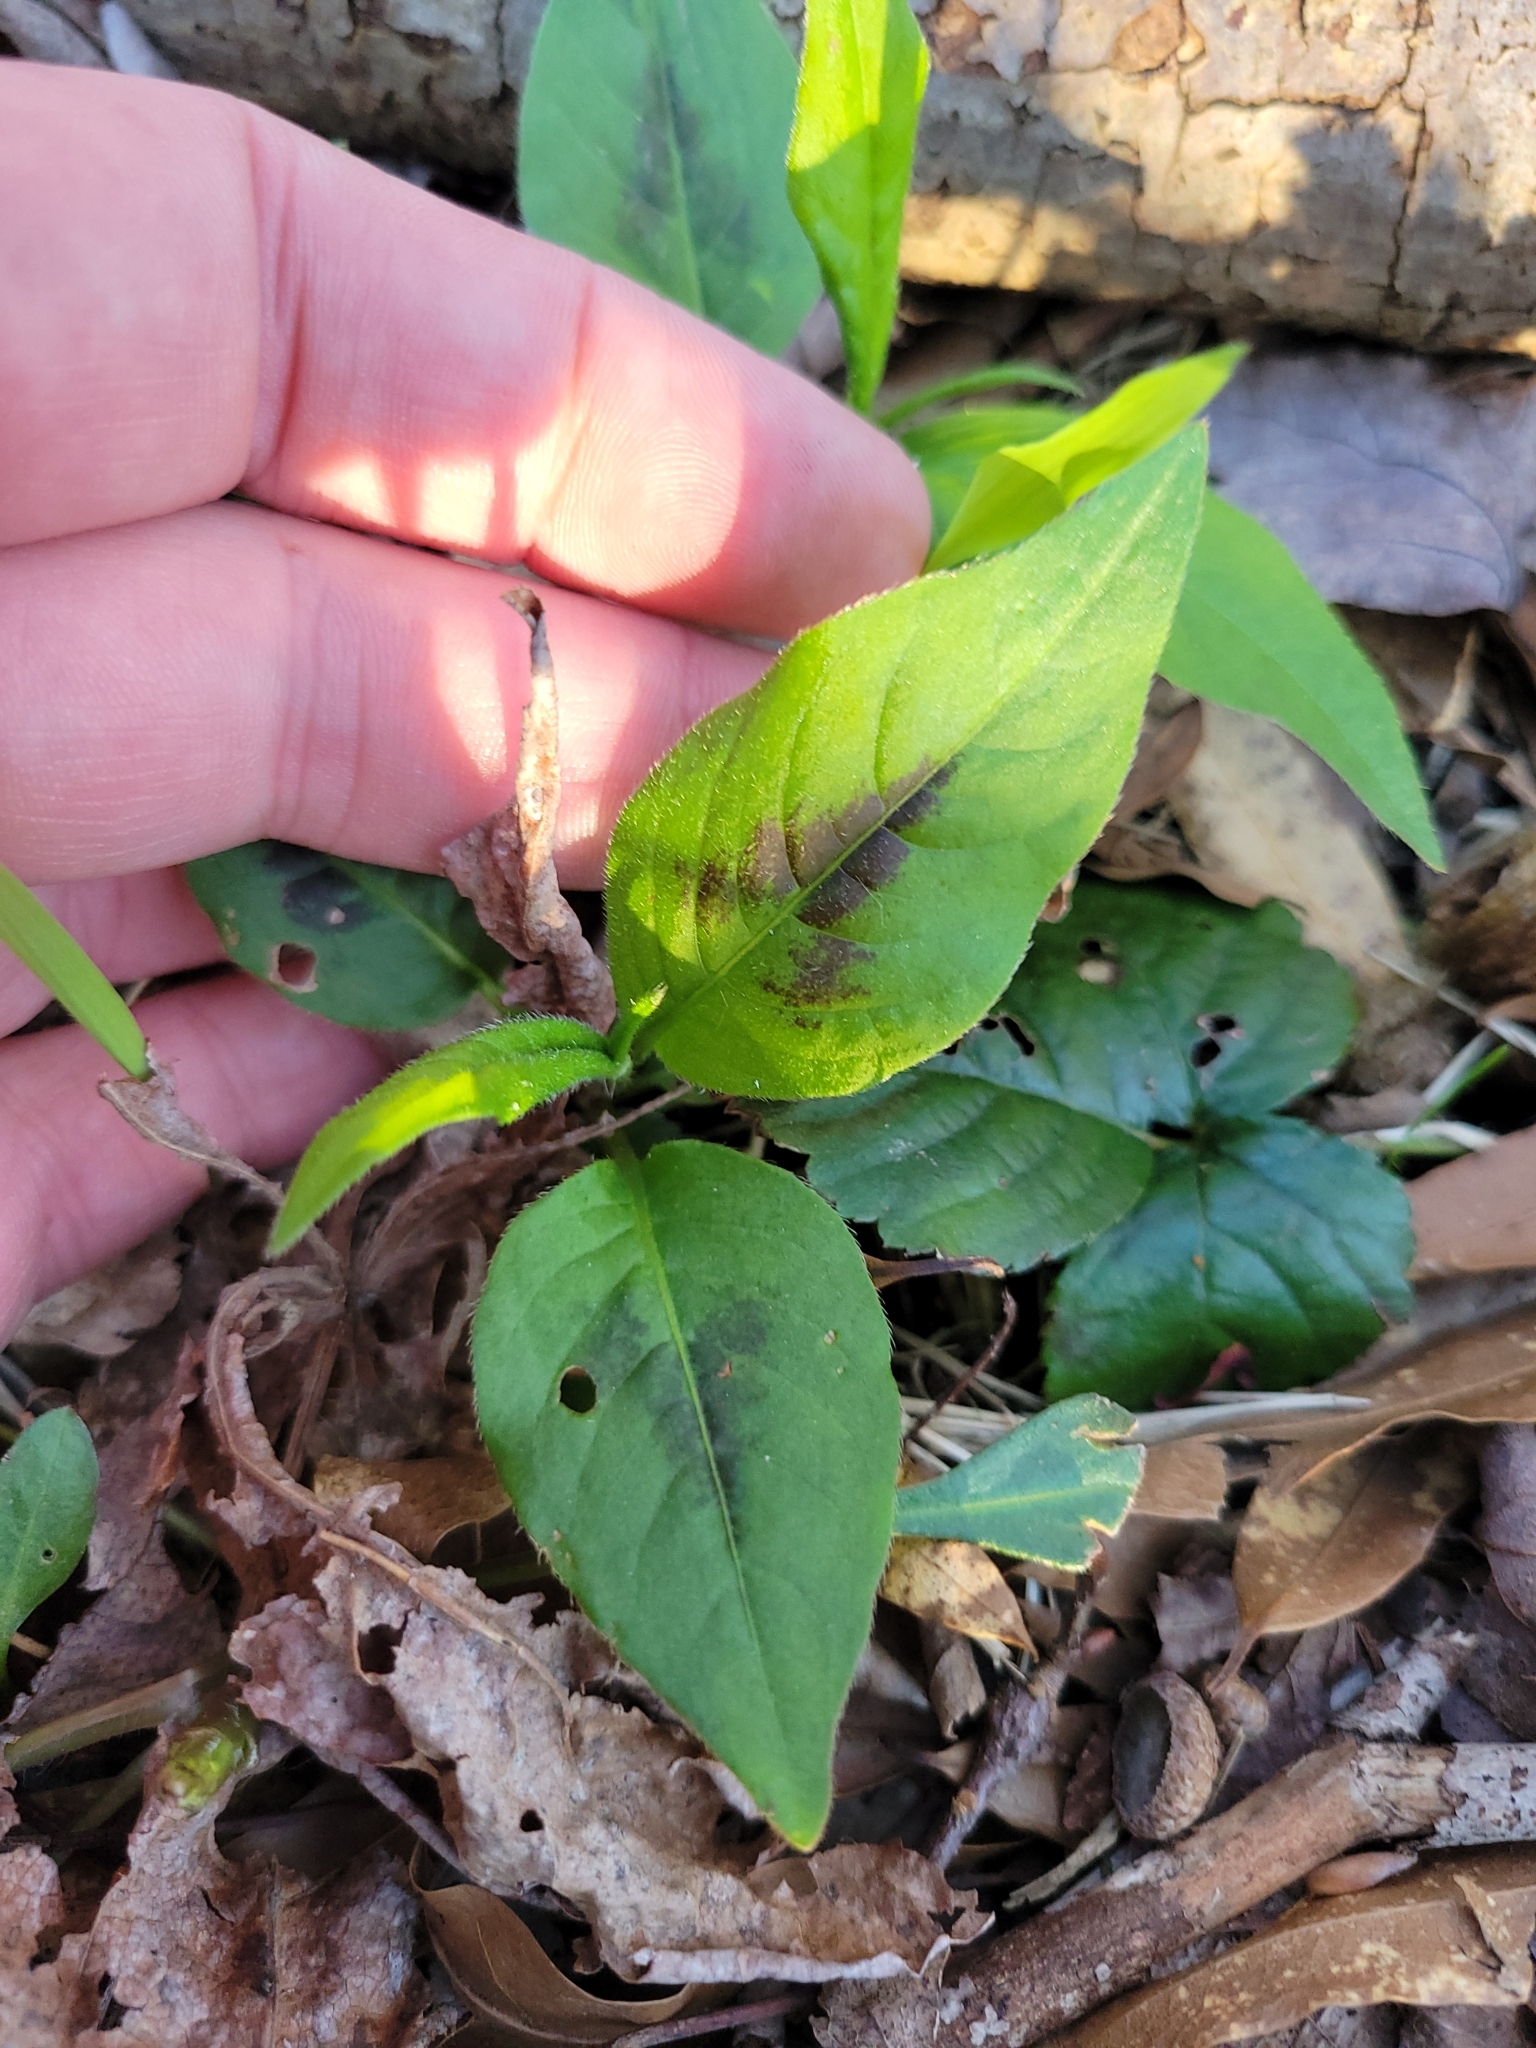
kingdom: Plantae
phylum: Tracheophyta
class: Magnoliopsida
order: Caryophyllales
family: Polygonaceae
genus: Persicaria
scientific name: Persicaria virginiana
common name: Jumpseed
